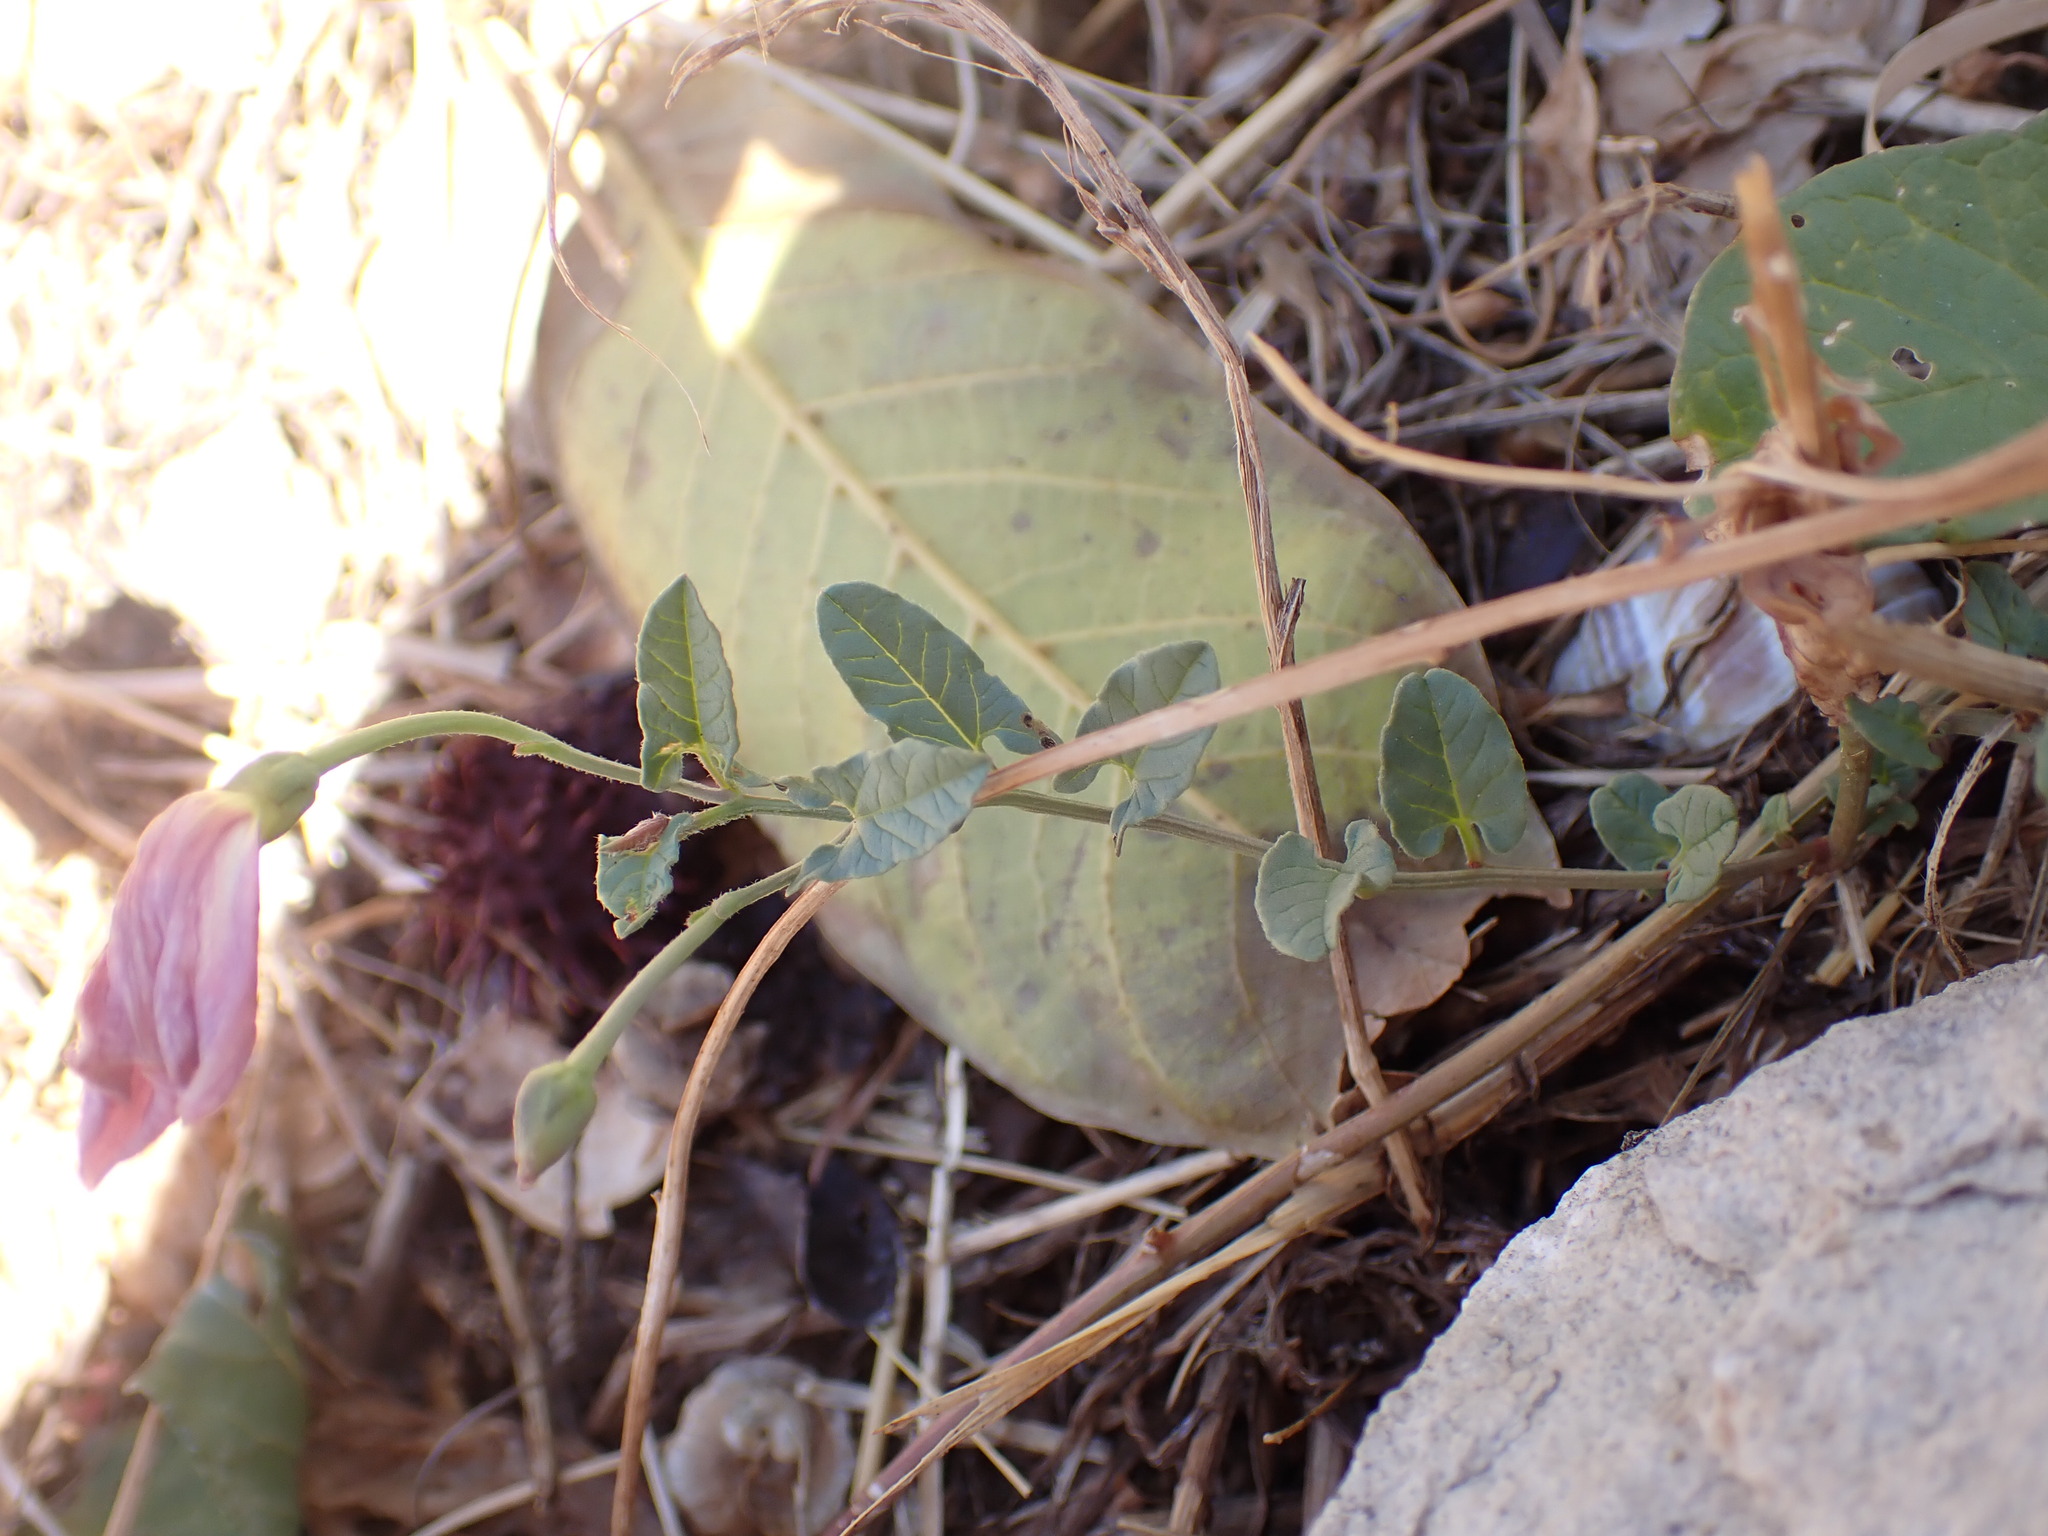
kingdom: Plantae
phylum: Tracheophyta
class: Magnoliopsida
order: Solanales
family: Convolvulaceae
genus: Convolvulus
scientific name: Convolvulus arvensis
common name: Field bindweed
